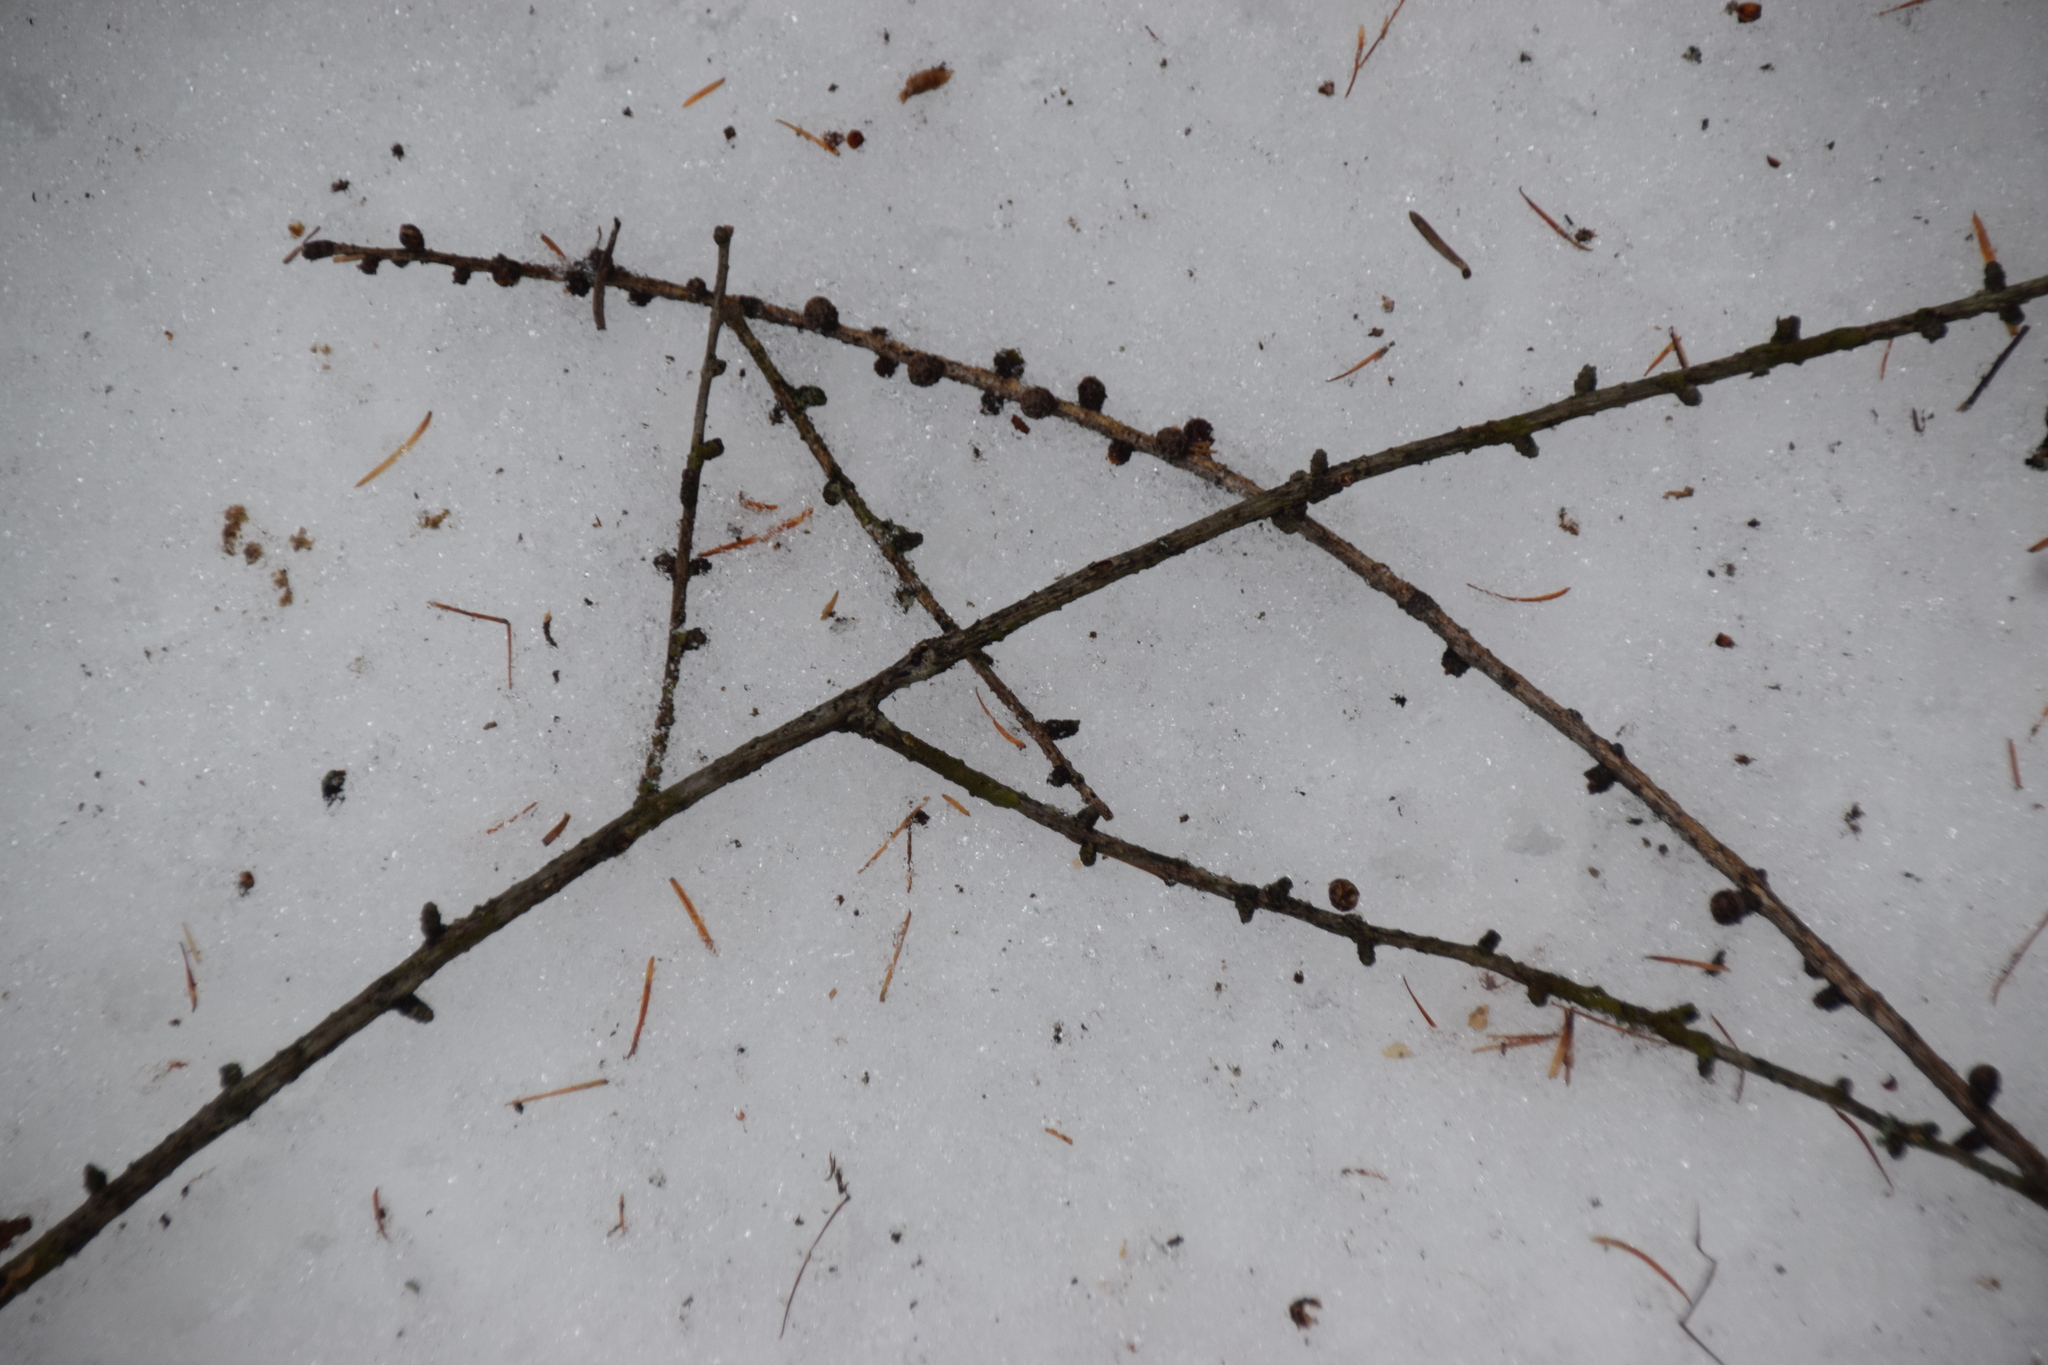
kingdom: Plantae
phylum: Tracheophyta
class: Pinopsida
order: Pinales
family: Pinaceae
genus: Larix
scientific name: Larix laricina
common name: American larch
